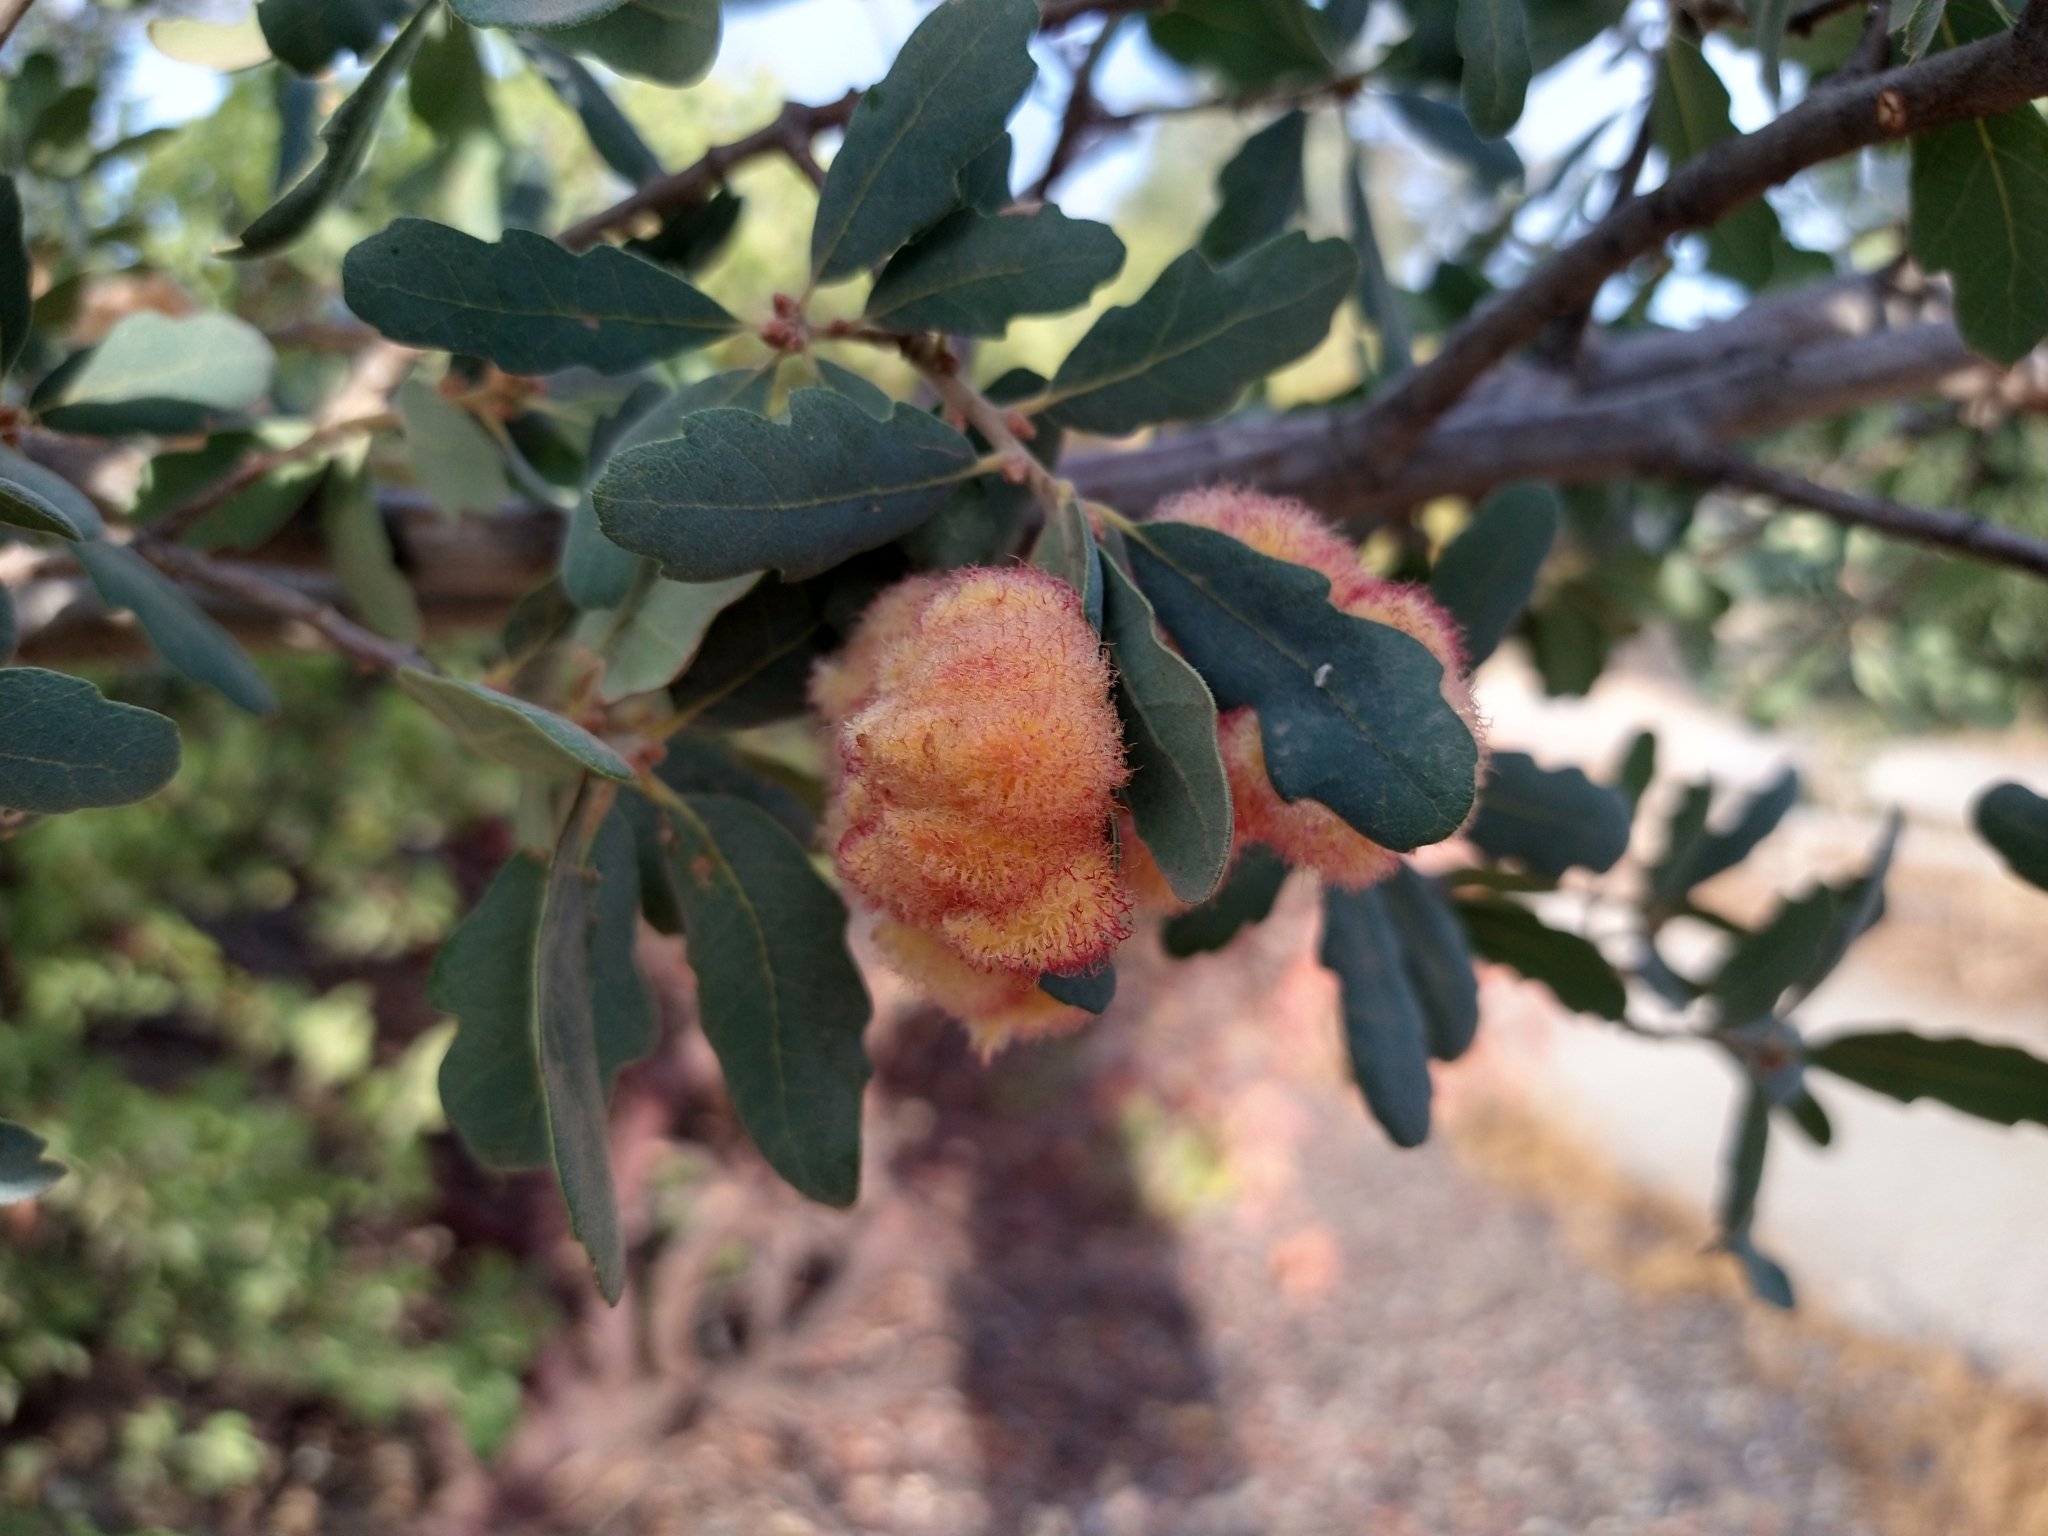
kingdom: Animalia
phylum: Arthropoda
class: Insecta
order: Hymenoptera
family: Cynipidae
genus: Andricus
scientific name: Andricus
